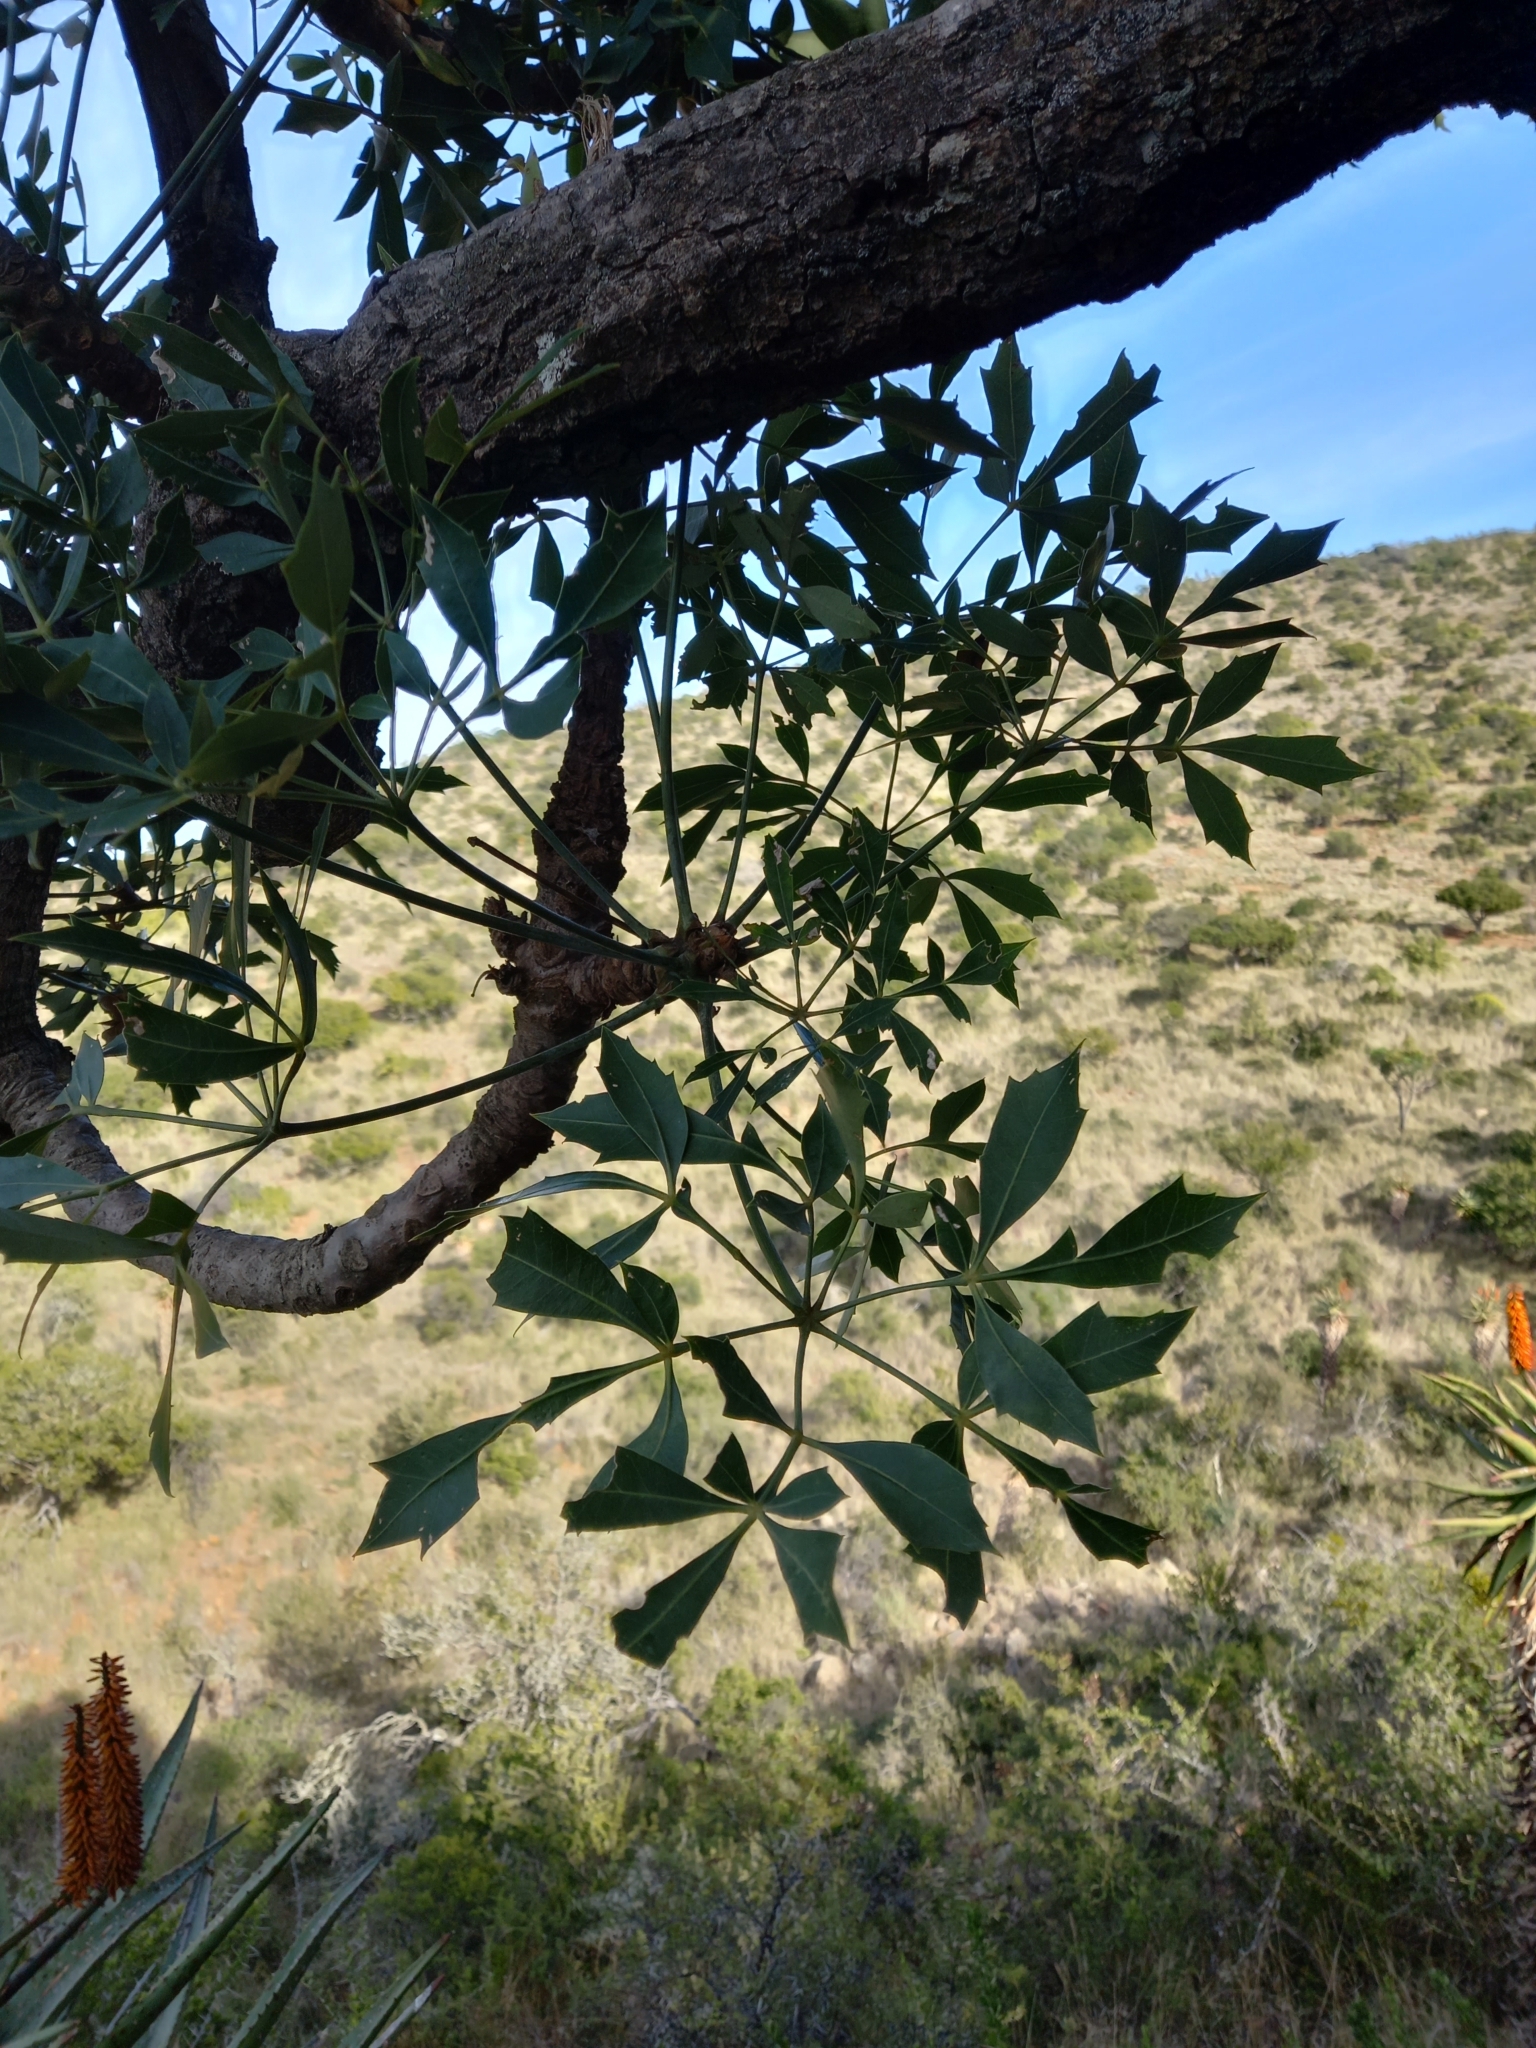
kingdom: Plantae
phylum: Tracheophyta
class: Magnoliopsida
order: Apiales
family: Araliaceae
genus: Cussonia
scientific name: Cussonia spicata
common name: Common cabbagetree
